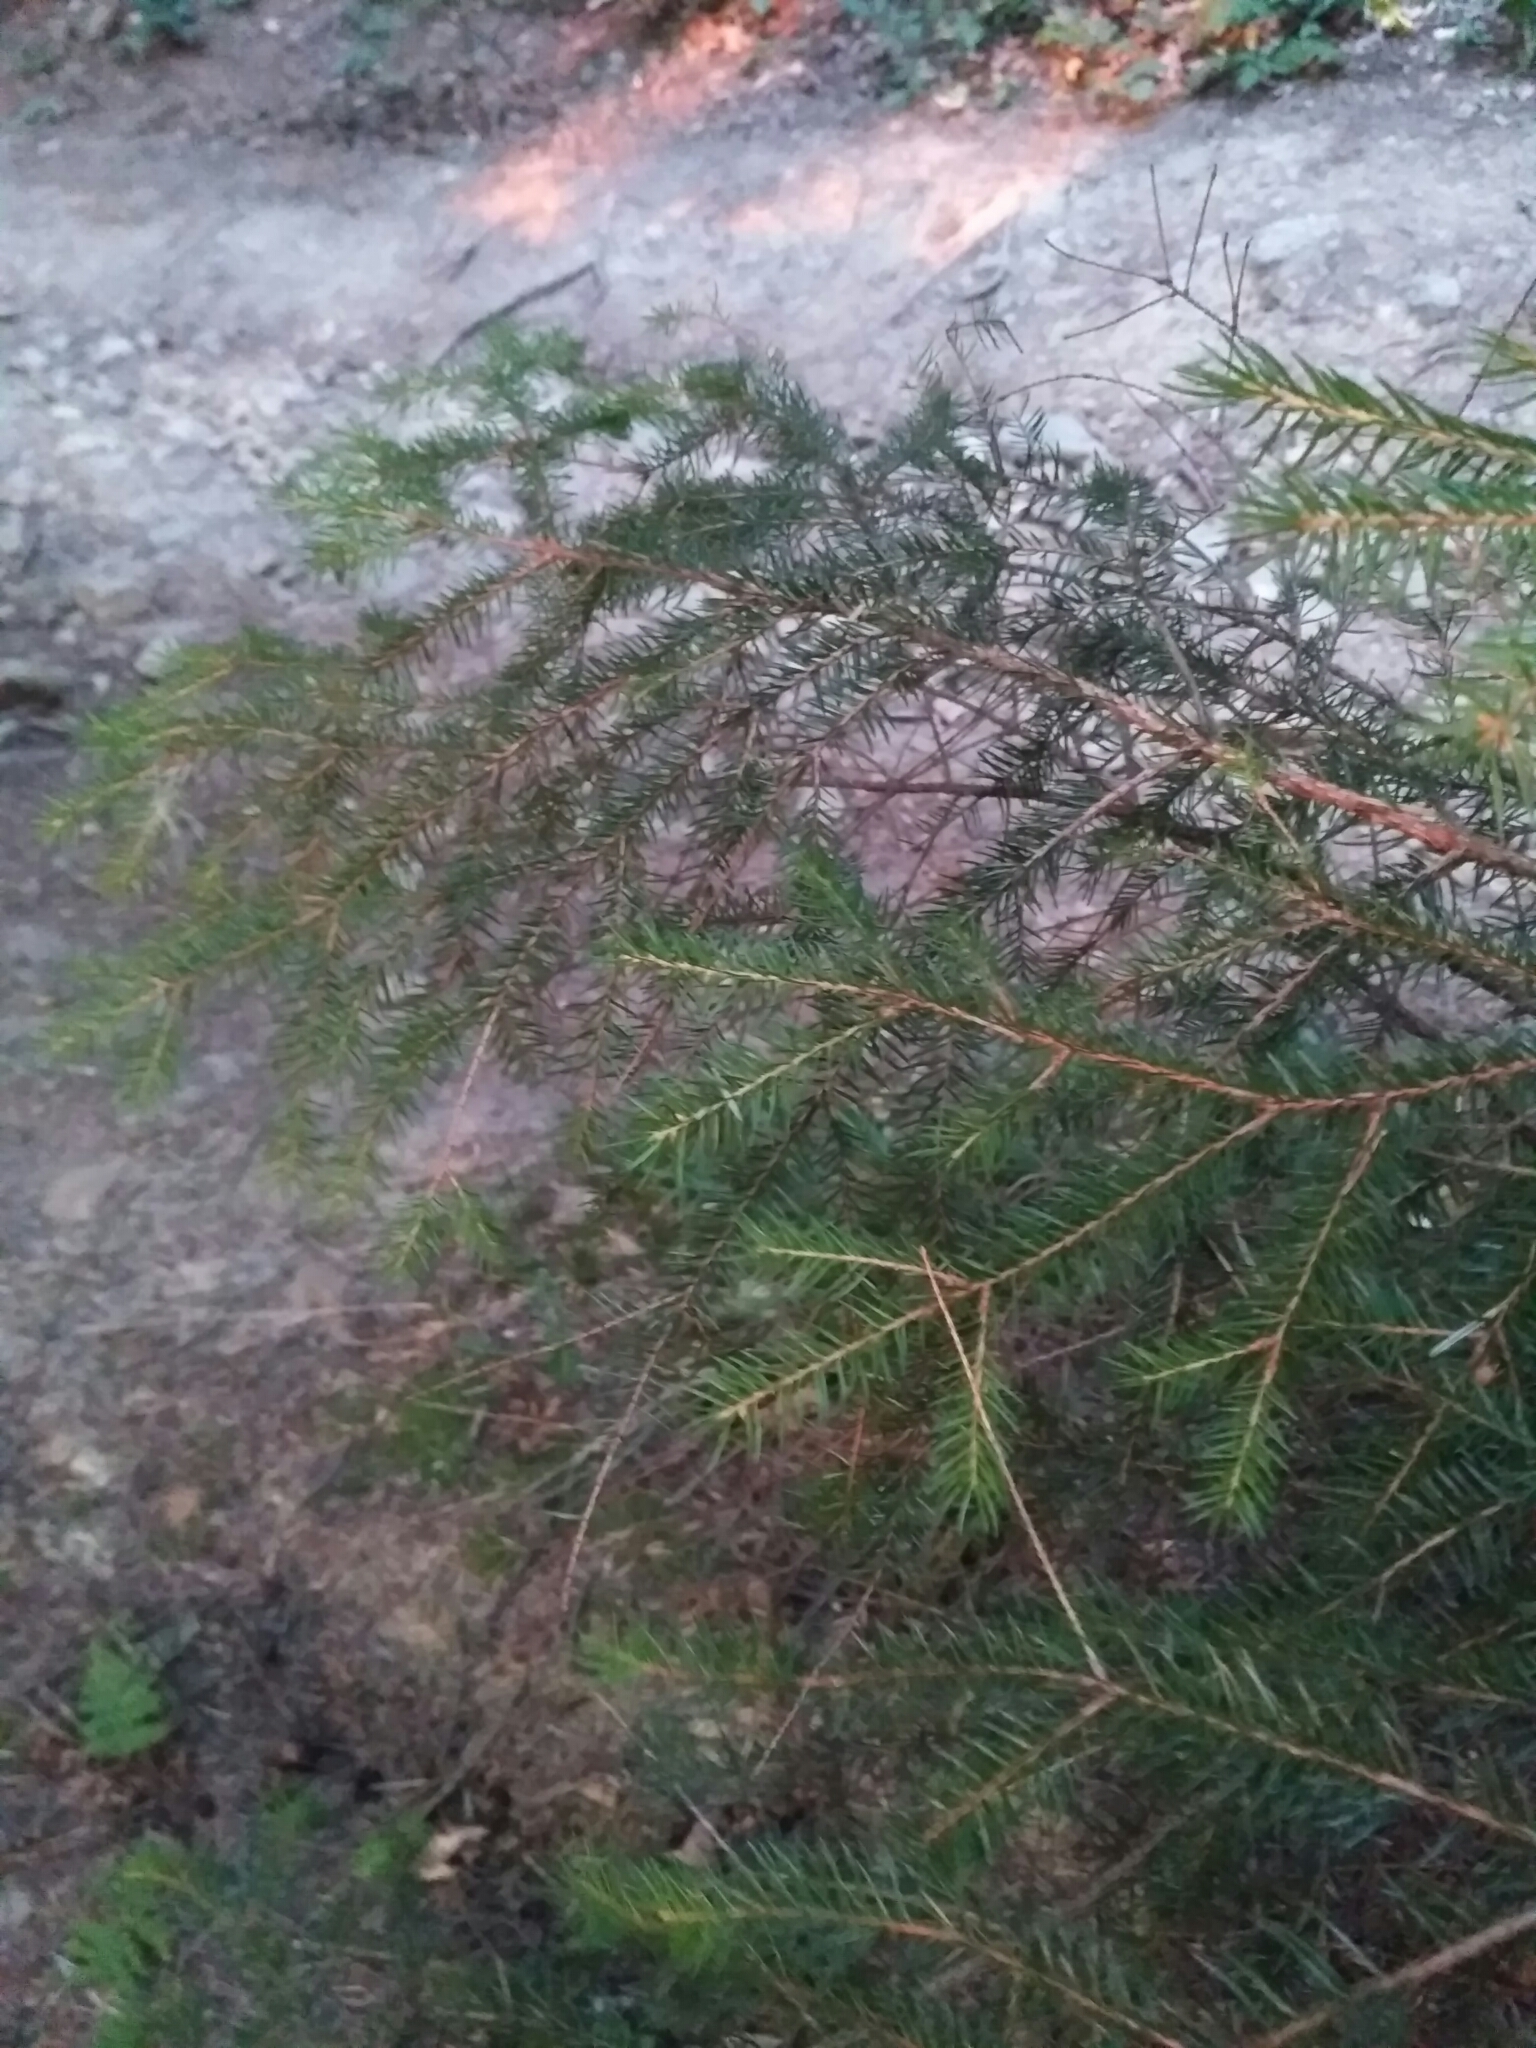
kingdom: Plantae
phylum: Tracheophyta
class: Pinopsida
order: Pinales
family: Pinaceae
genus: Picea
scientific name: Picea abies
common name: Norway spruce
